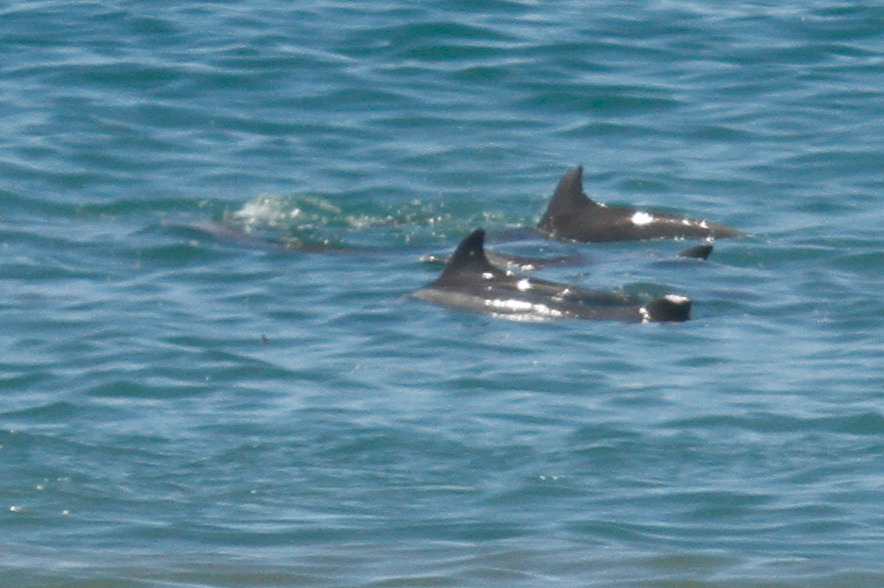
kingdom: Animalia
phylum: Chordata
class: Mammalia
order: Cetacea
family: Delphinidae
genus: Tursiops
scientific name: Tursiops truncatus
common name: Bottlenose dolphin
